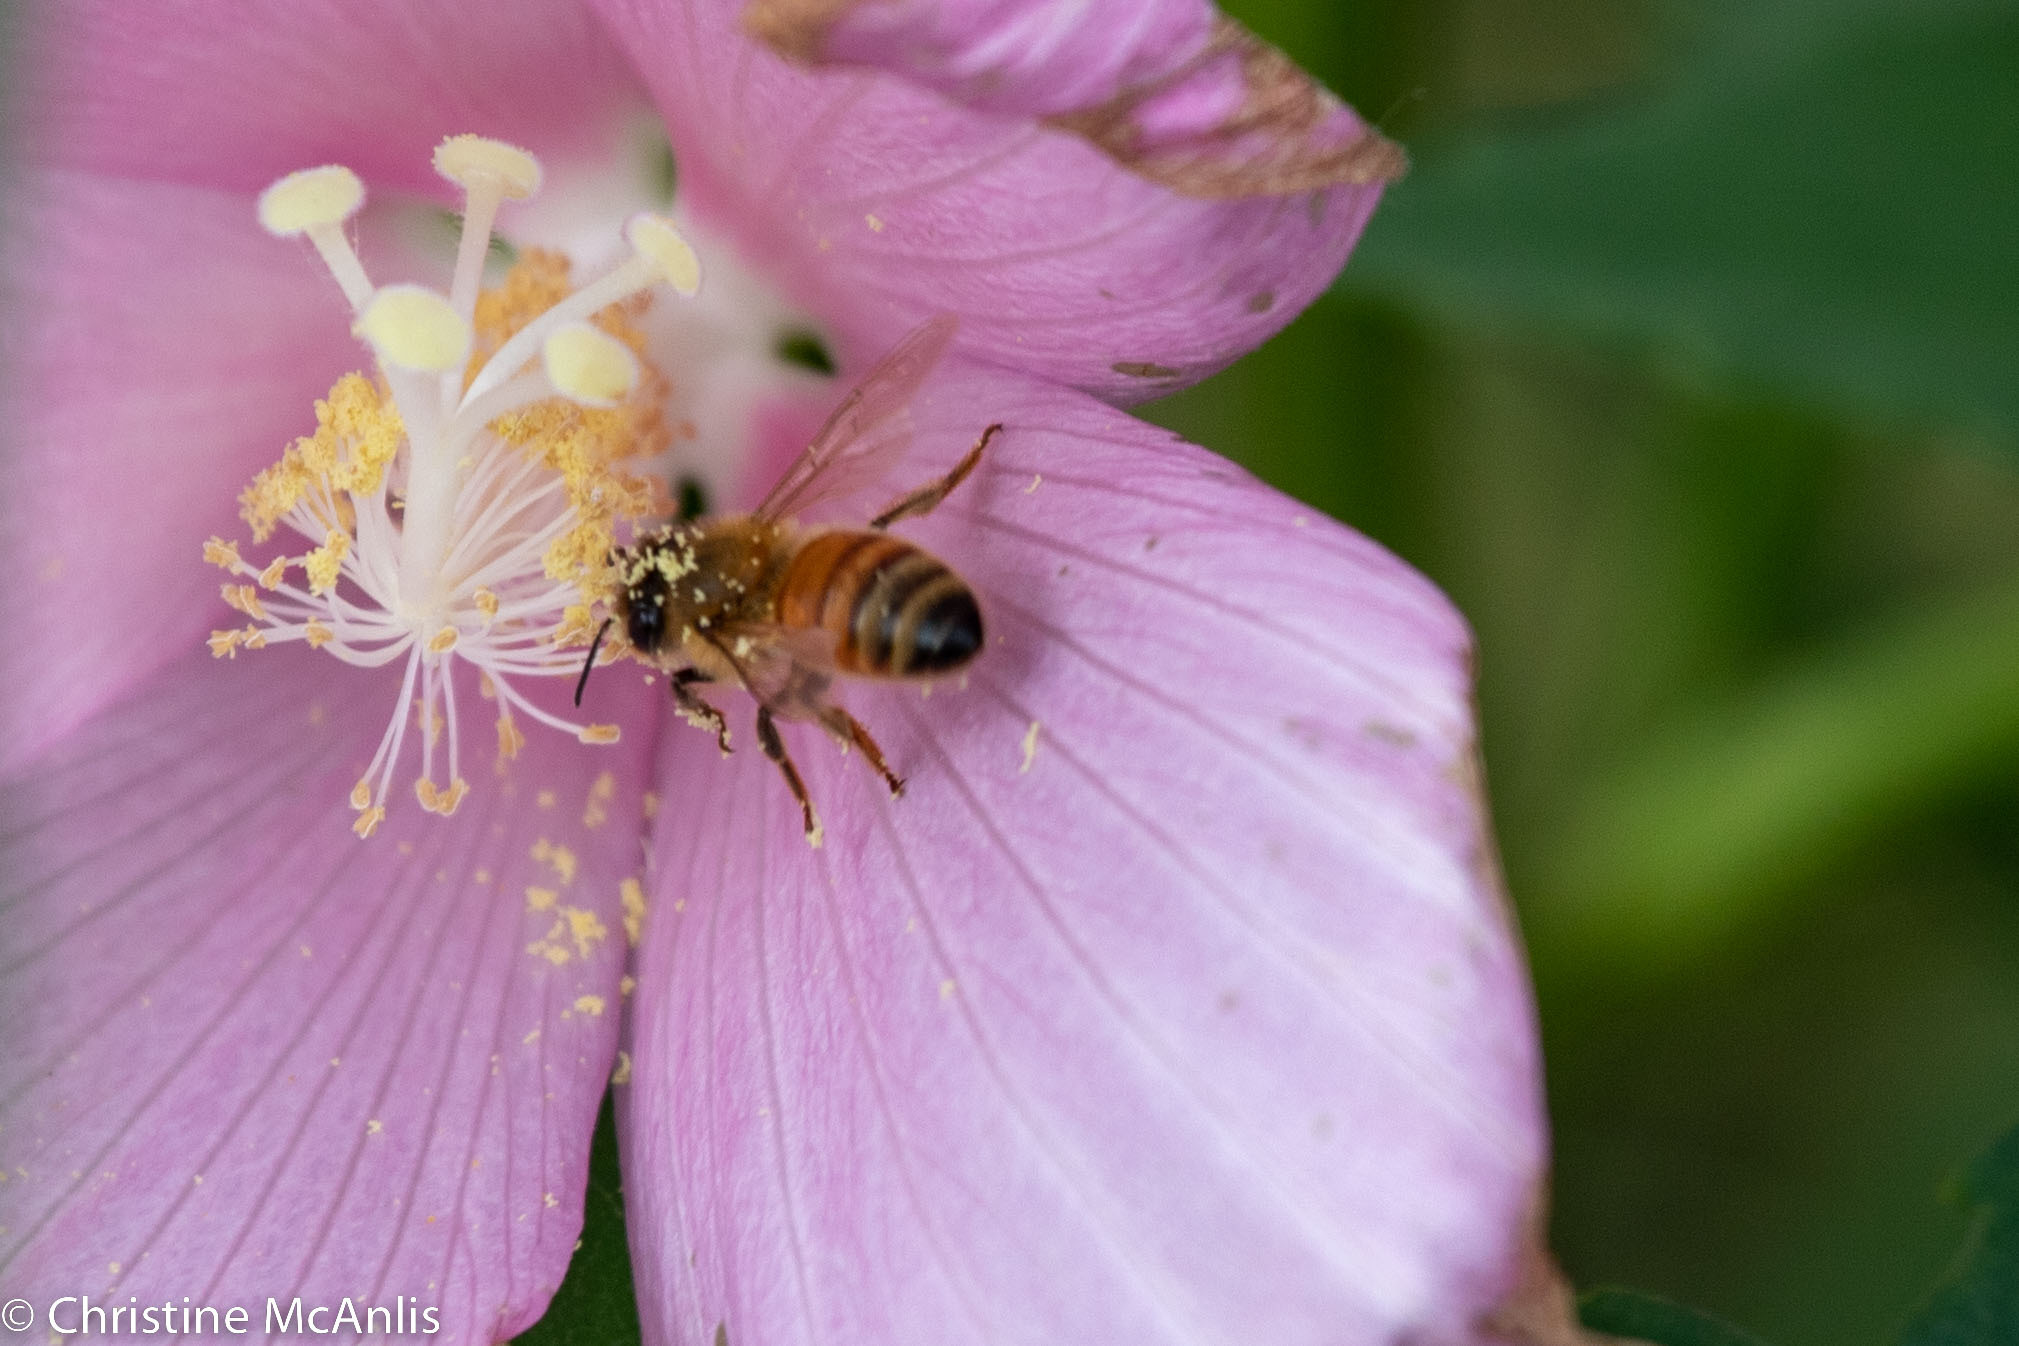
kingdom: Animalia
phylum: Arthropoda
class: Insecta
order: Hymenoptera
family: Apidae
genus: Apis
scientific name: Apis mellifera
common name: Honey bee
